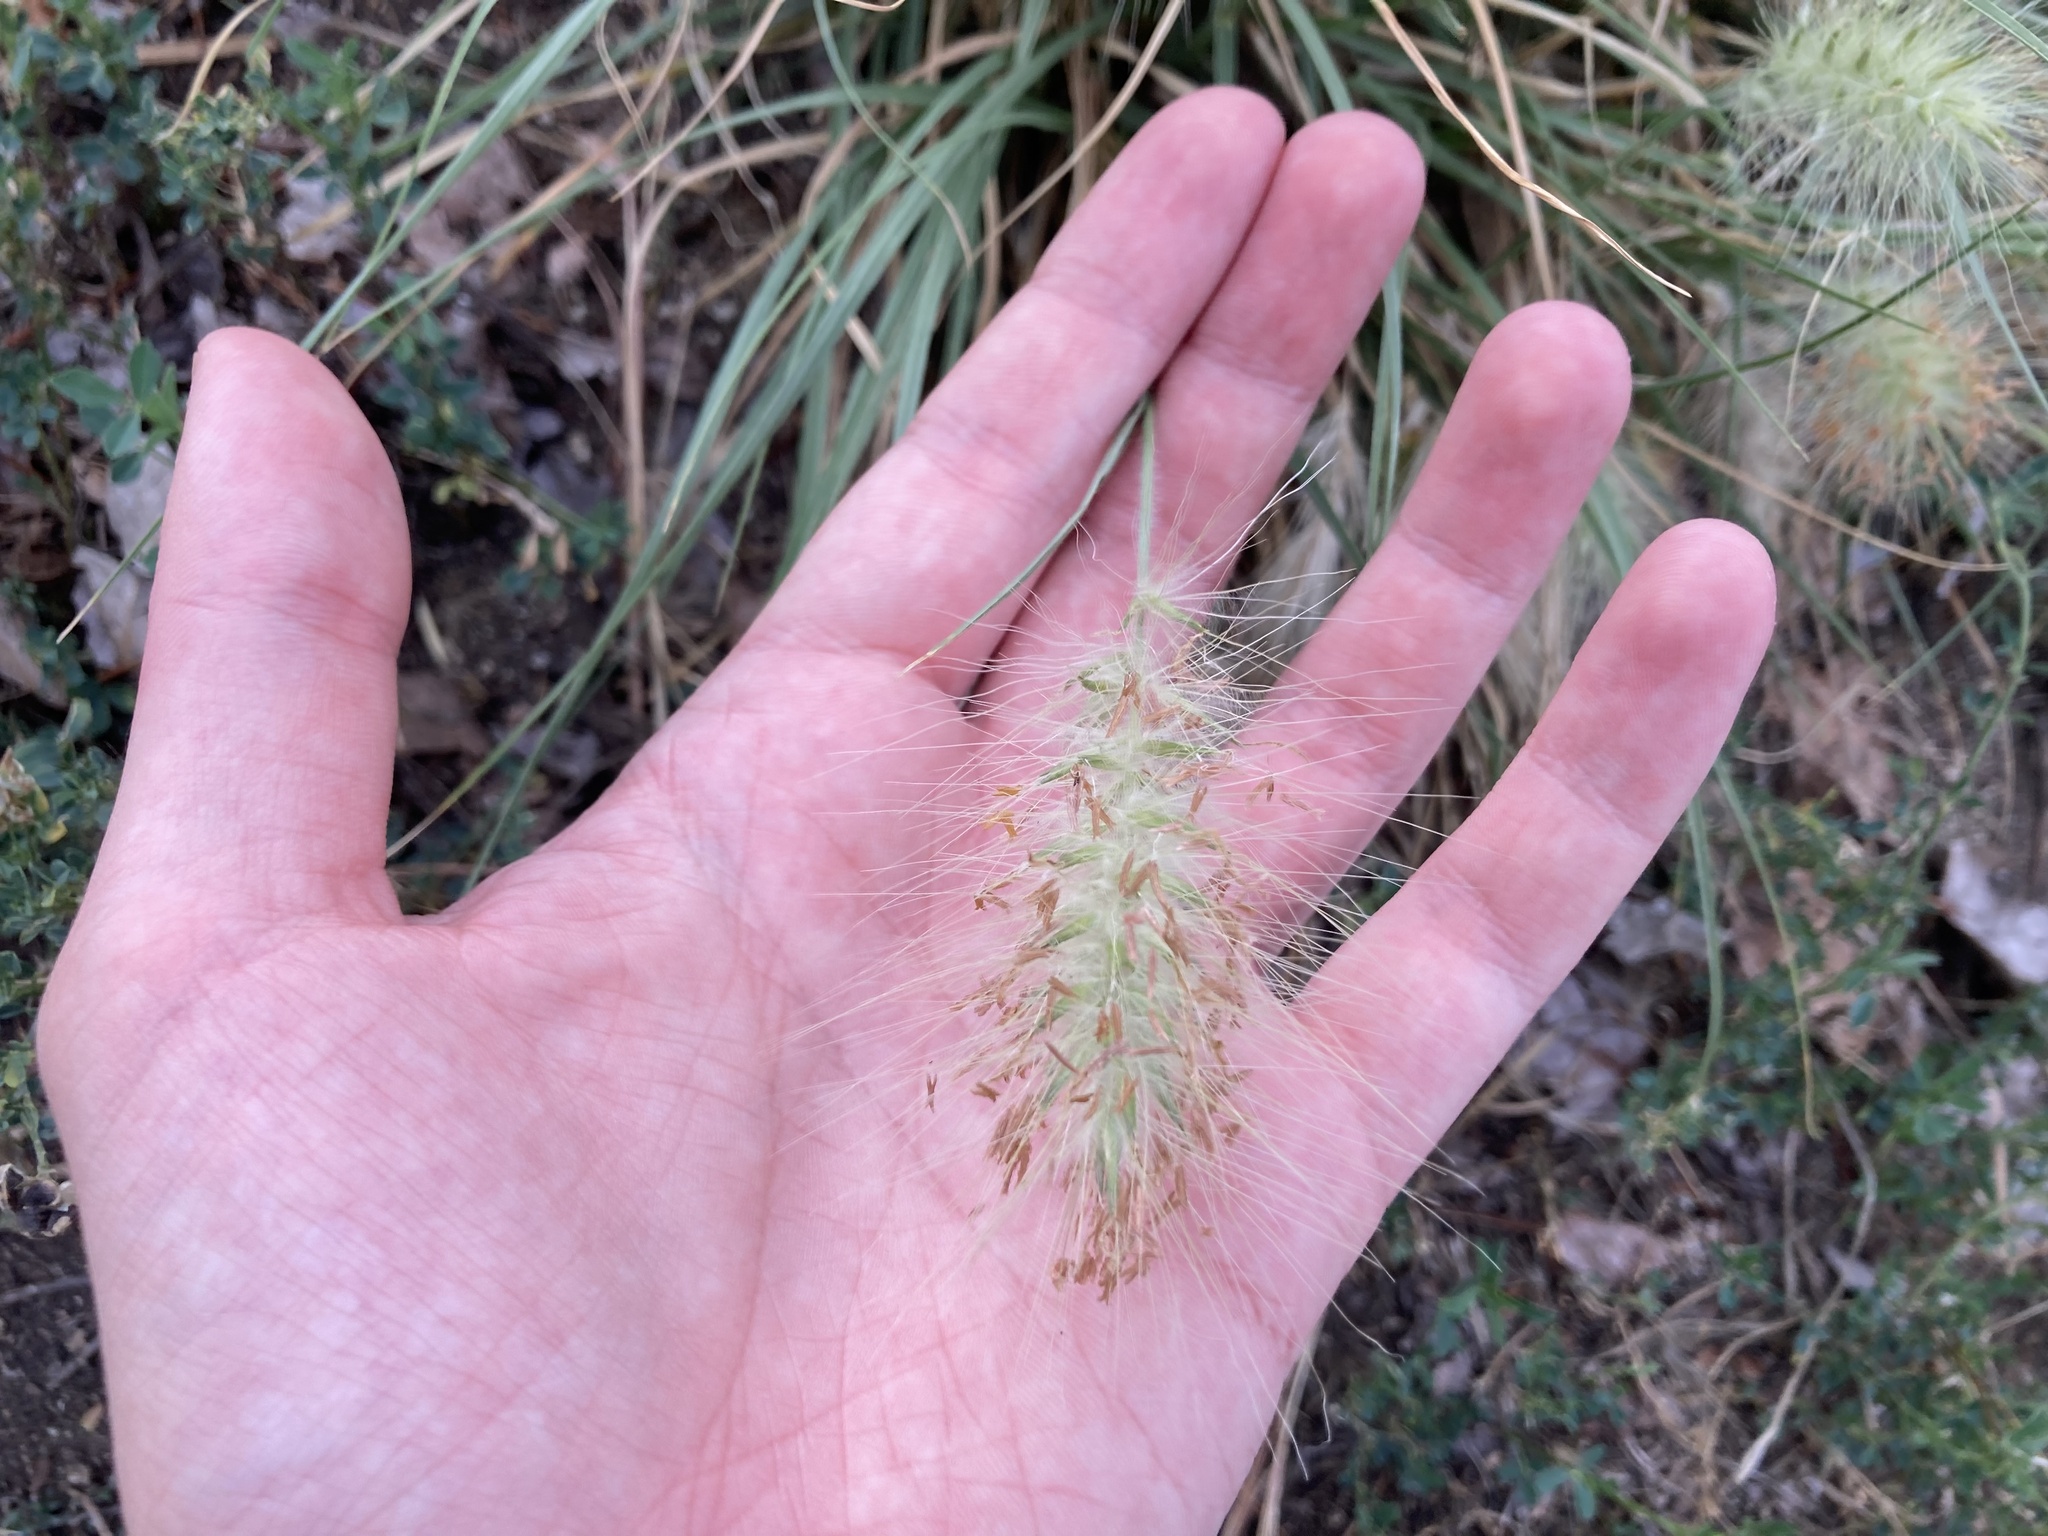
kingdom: Plantae
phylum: Tracheophyta
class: Liliopsida
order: Poales
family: Poaceae
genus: Cenchrus
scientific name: Cenchrus longisetus
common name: Feathertop
